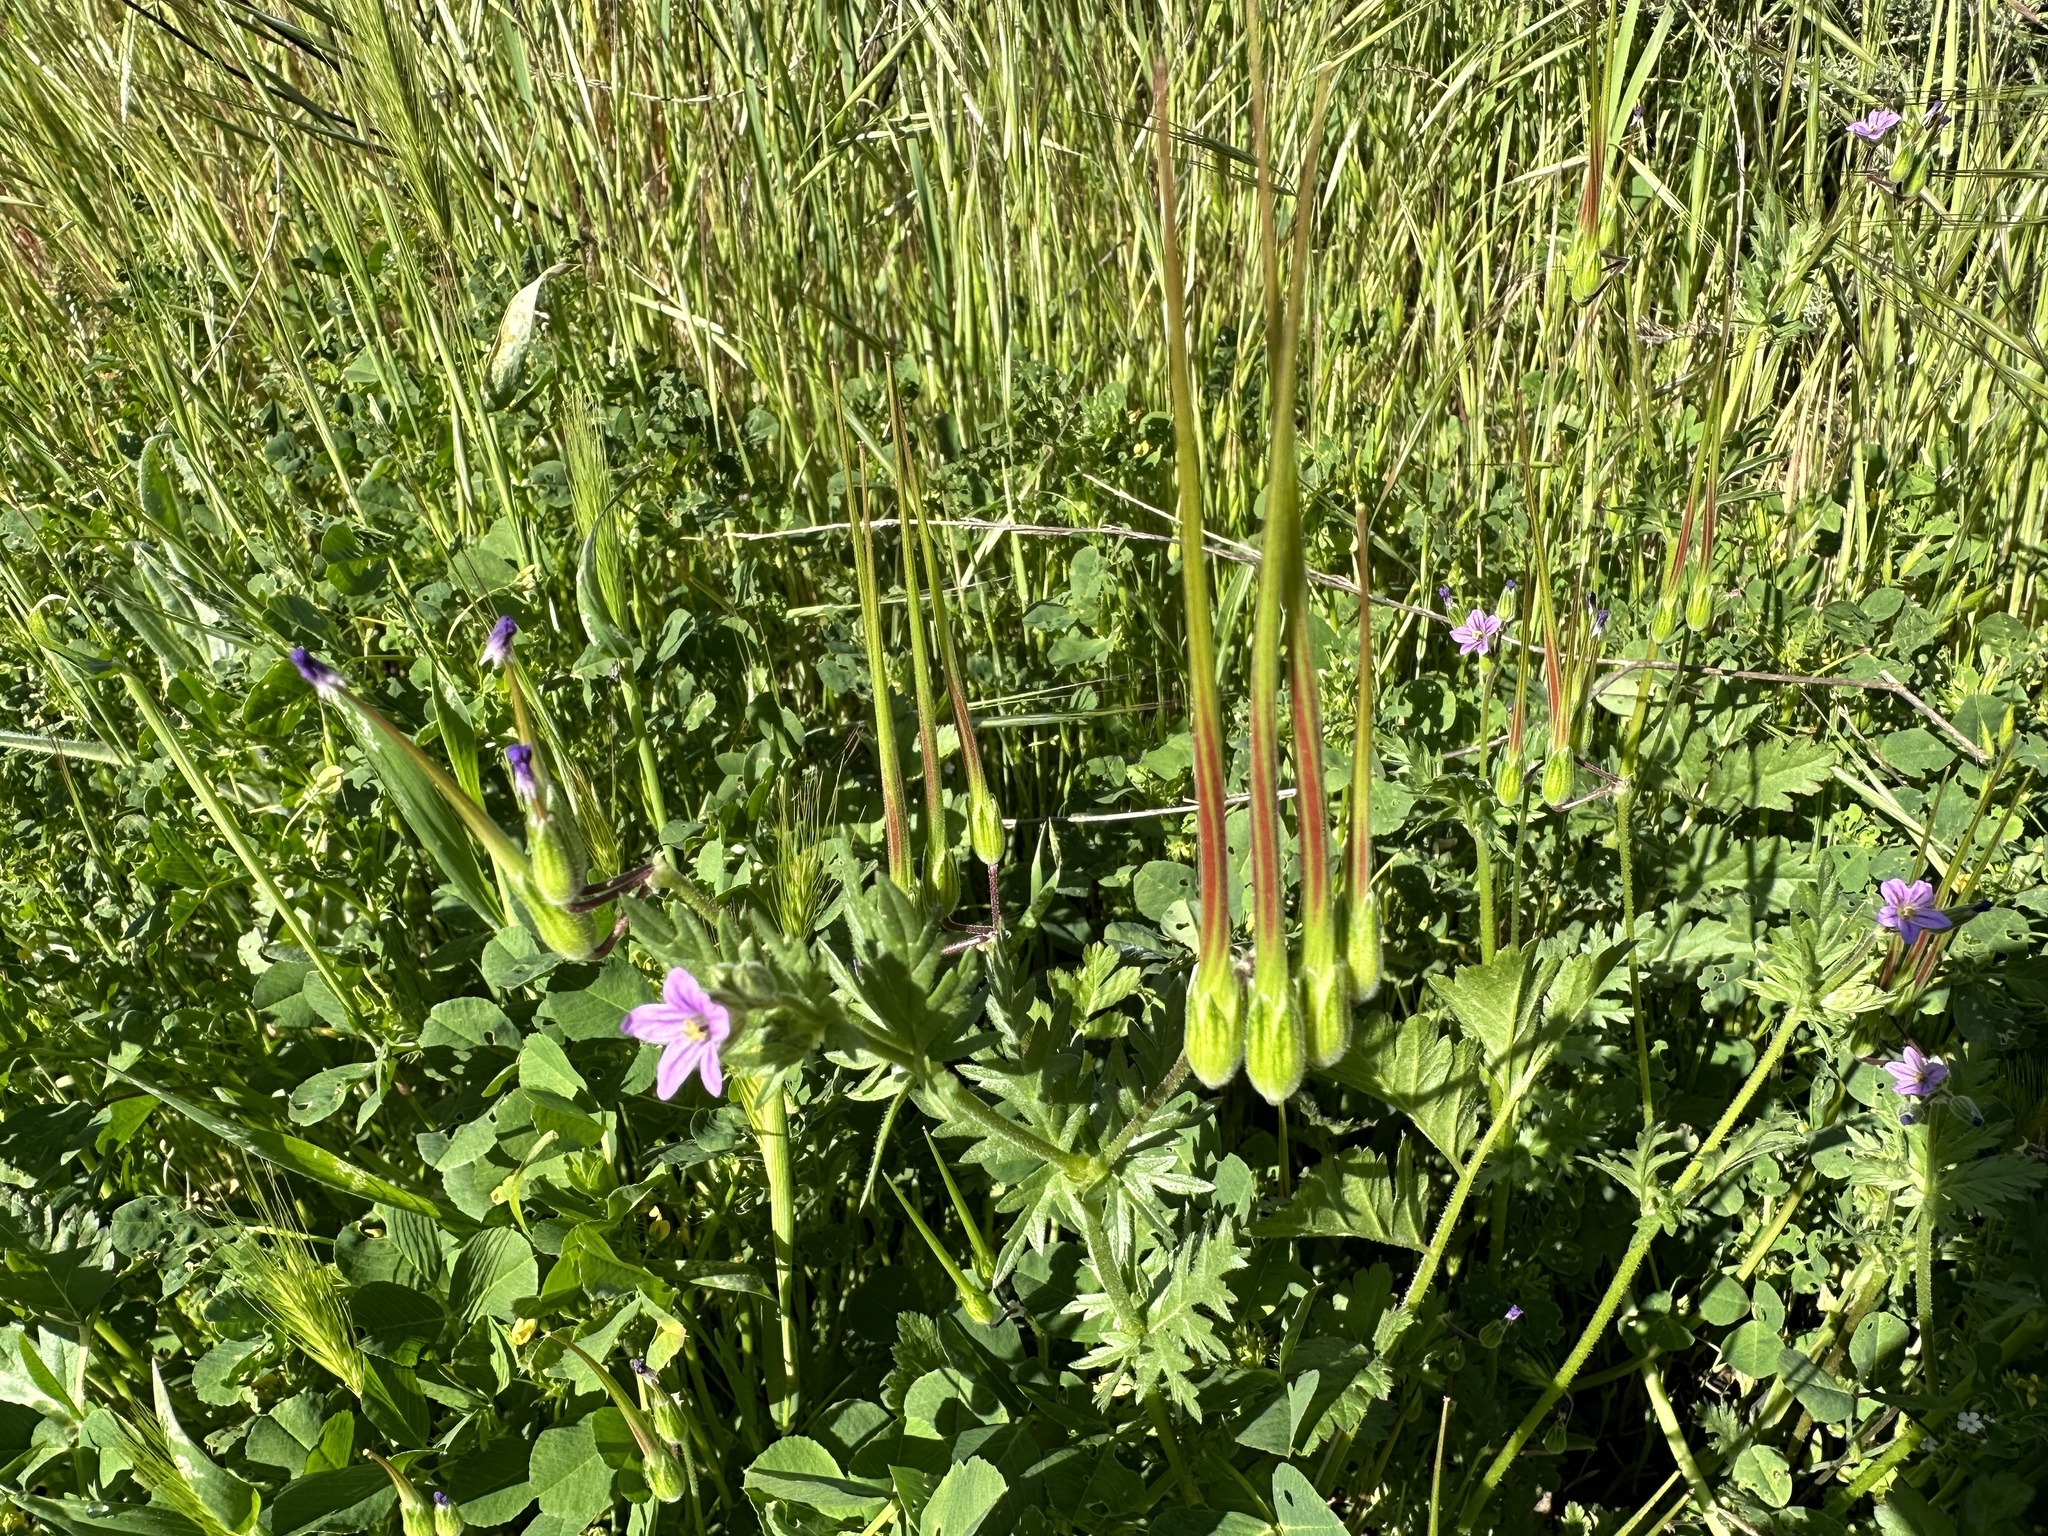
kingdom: Plantae
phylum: Tracheophyta
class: Magnoliopsida
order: Geraniales
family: Geraniaceae
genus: Erodium
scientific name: Erodium brachycarpum
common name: Hairy-pitted stork's-bill
